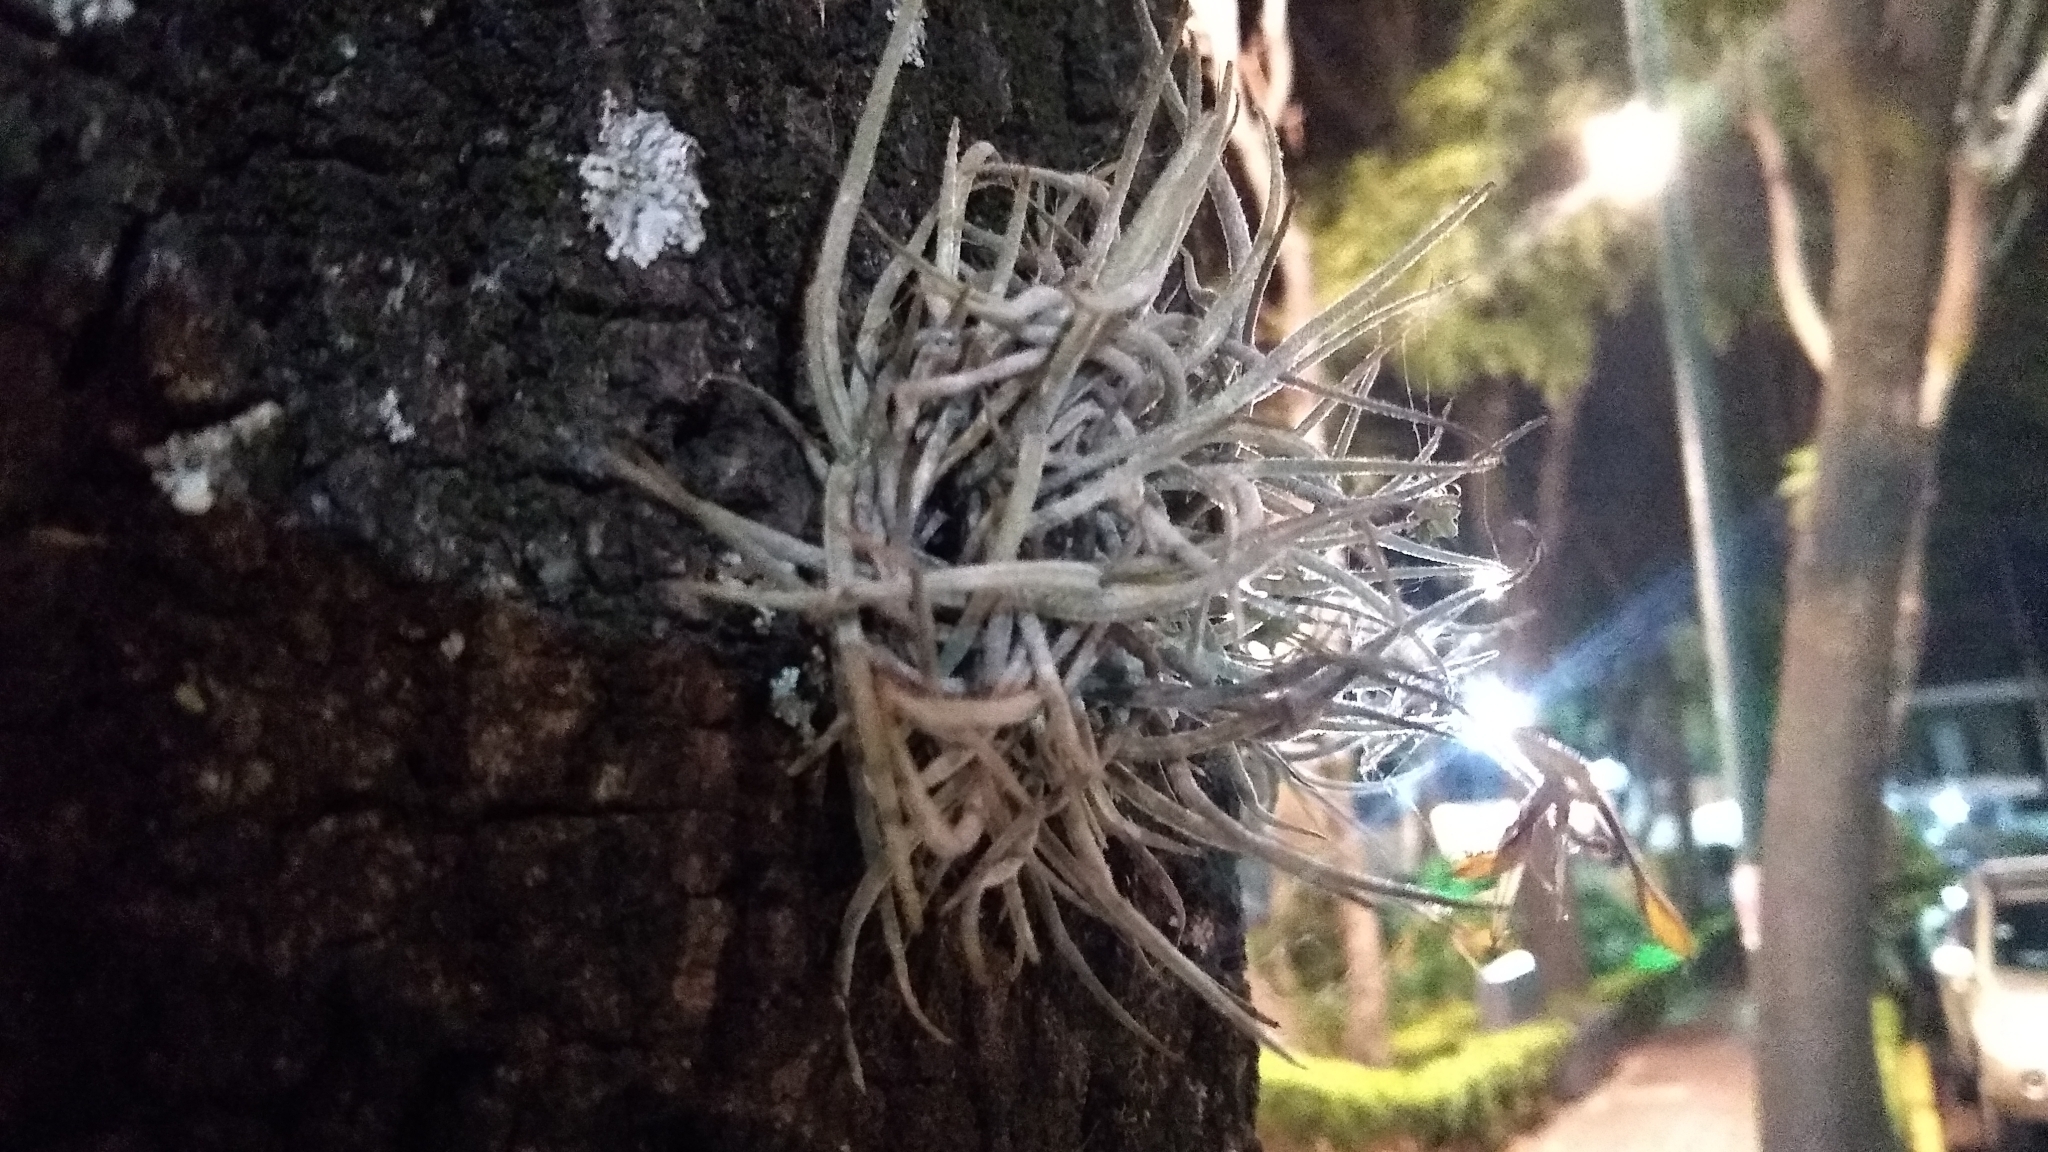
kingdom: Plantae
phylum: Tracheophyta
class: Liliopsida
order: Poales
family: Bromeliaceae
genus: Tillandsia
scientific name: Tillandsia recurvata
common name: Small ballmoss
